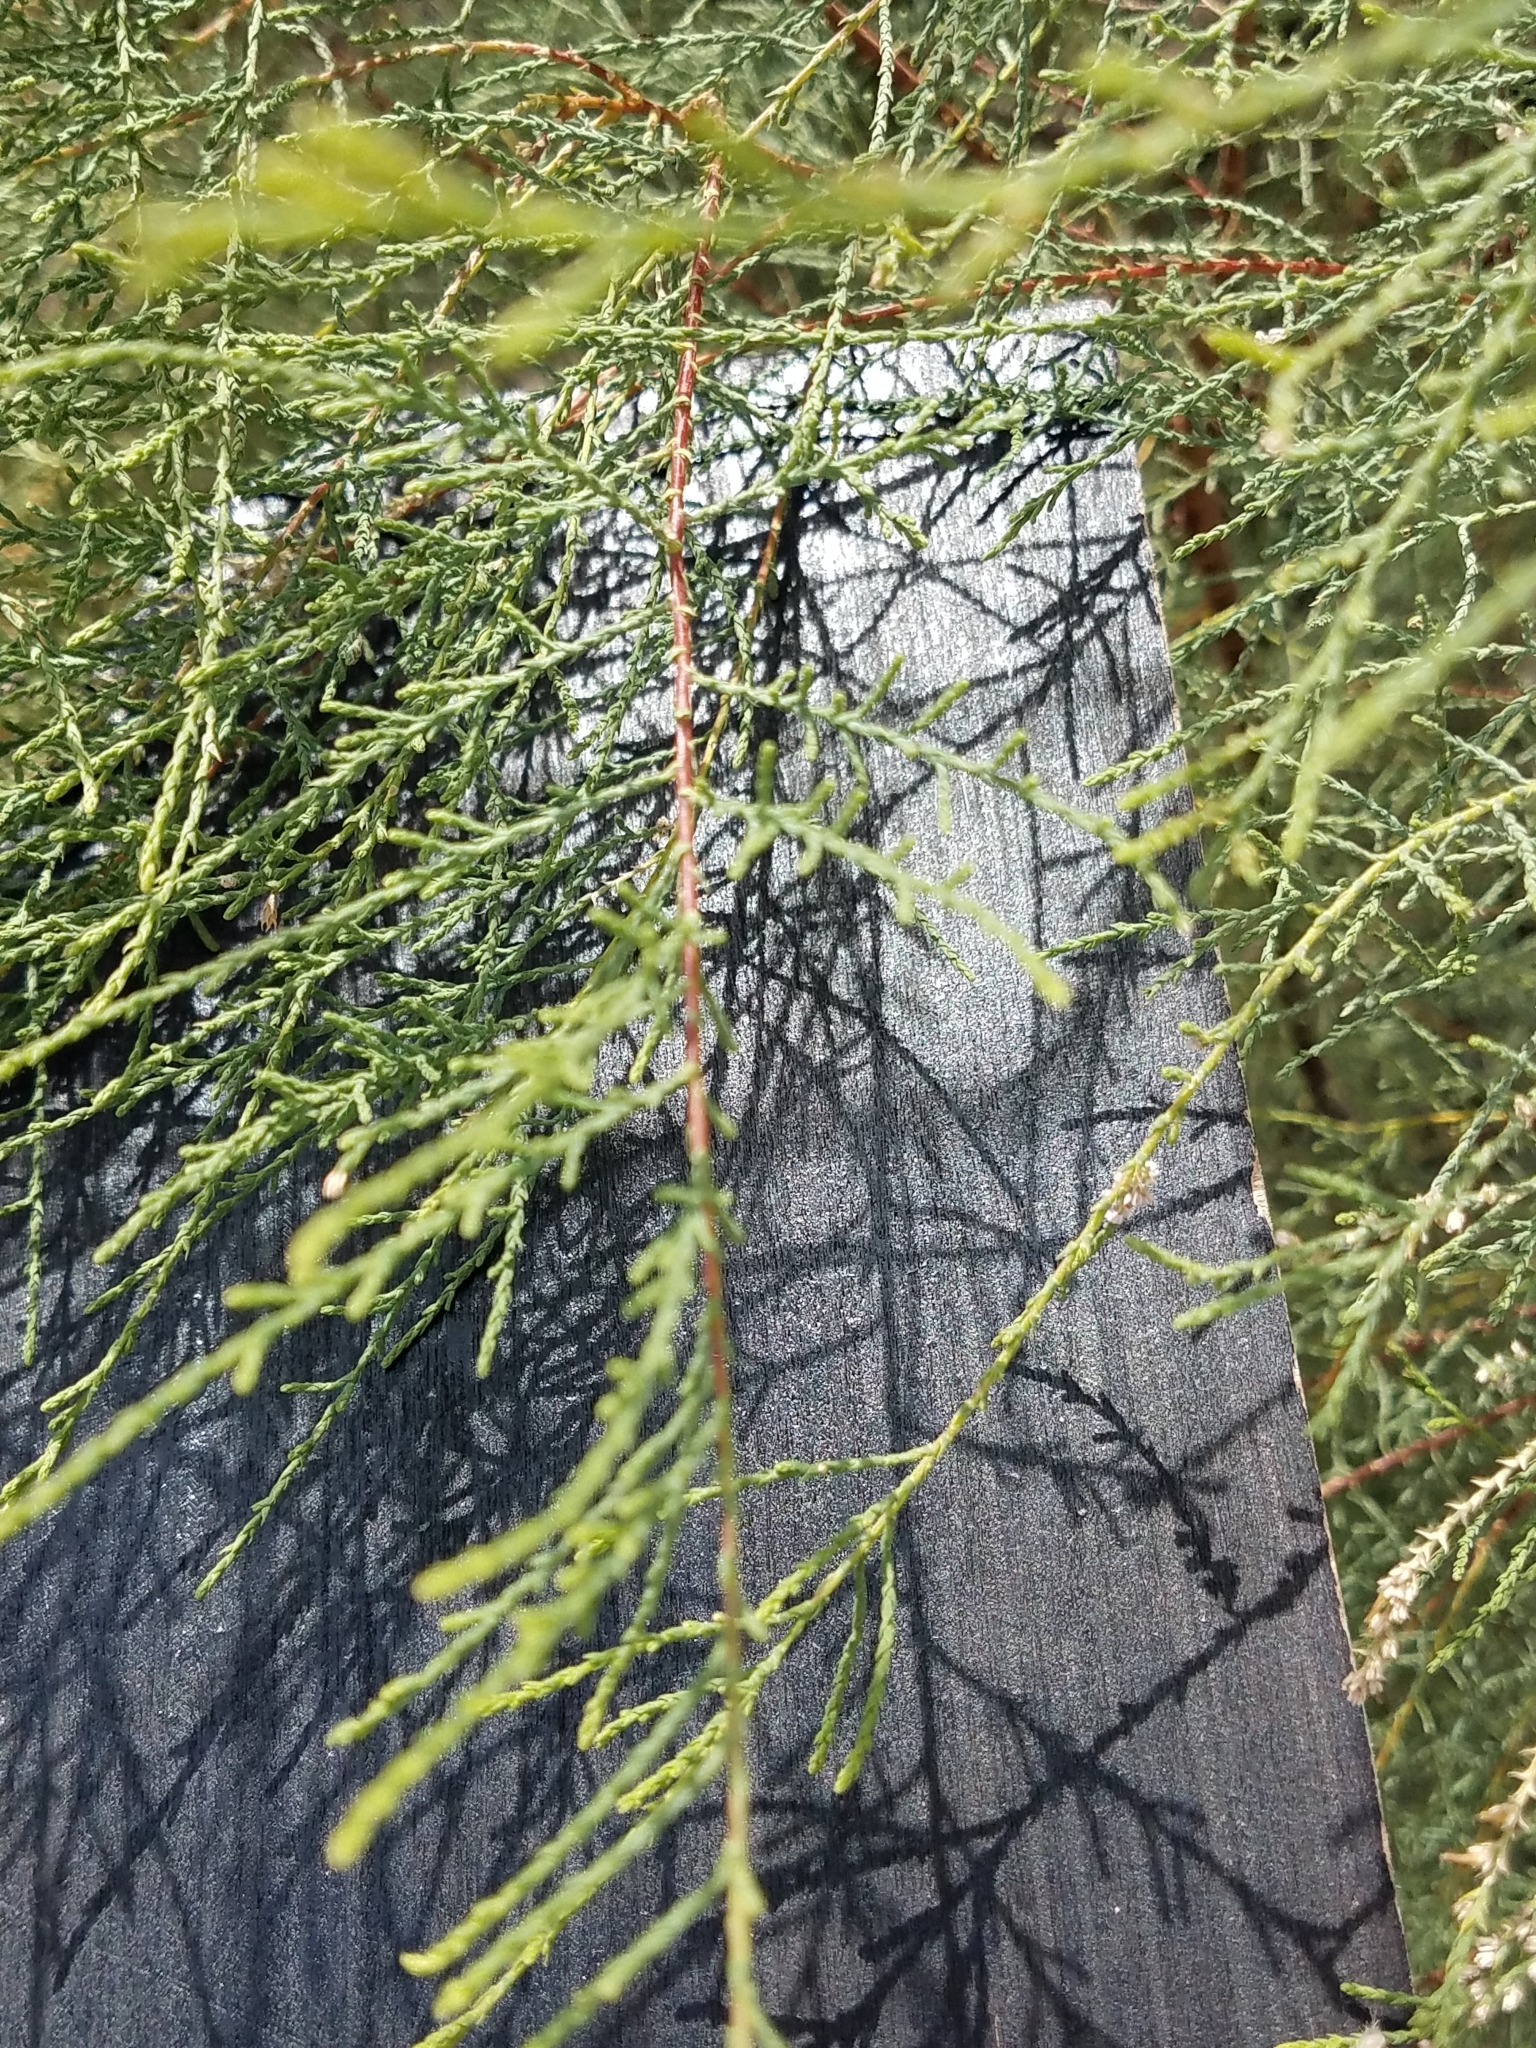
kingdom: Plantae
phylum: Tracheophyta
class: Magnoliopsida
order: Caryophyllales
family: Tamaricaceae
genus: Tamarix
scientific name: Tamarix ramosissima
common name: Pink tamarisk
